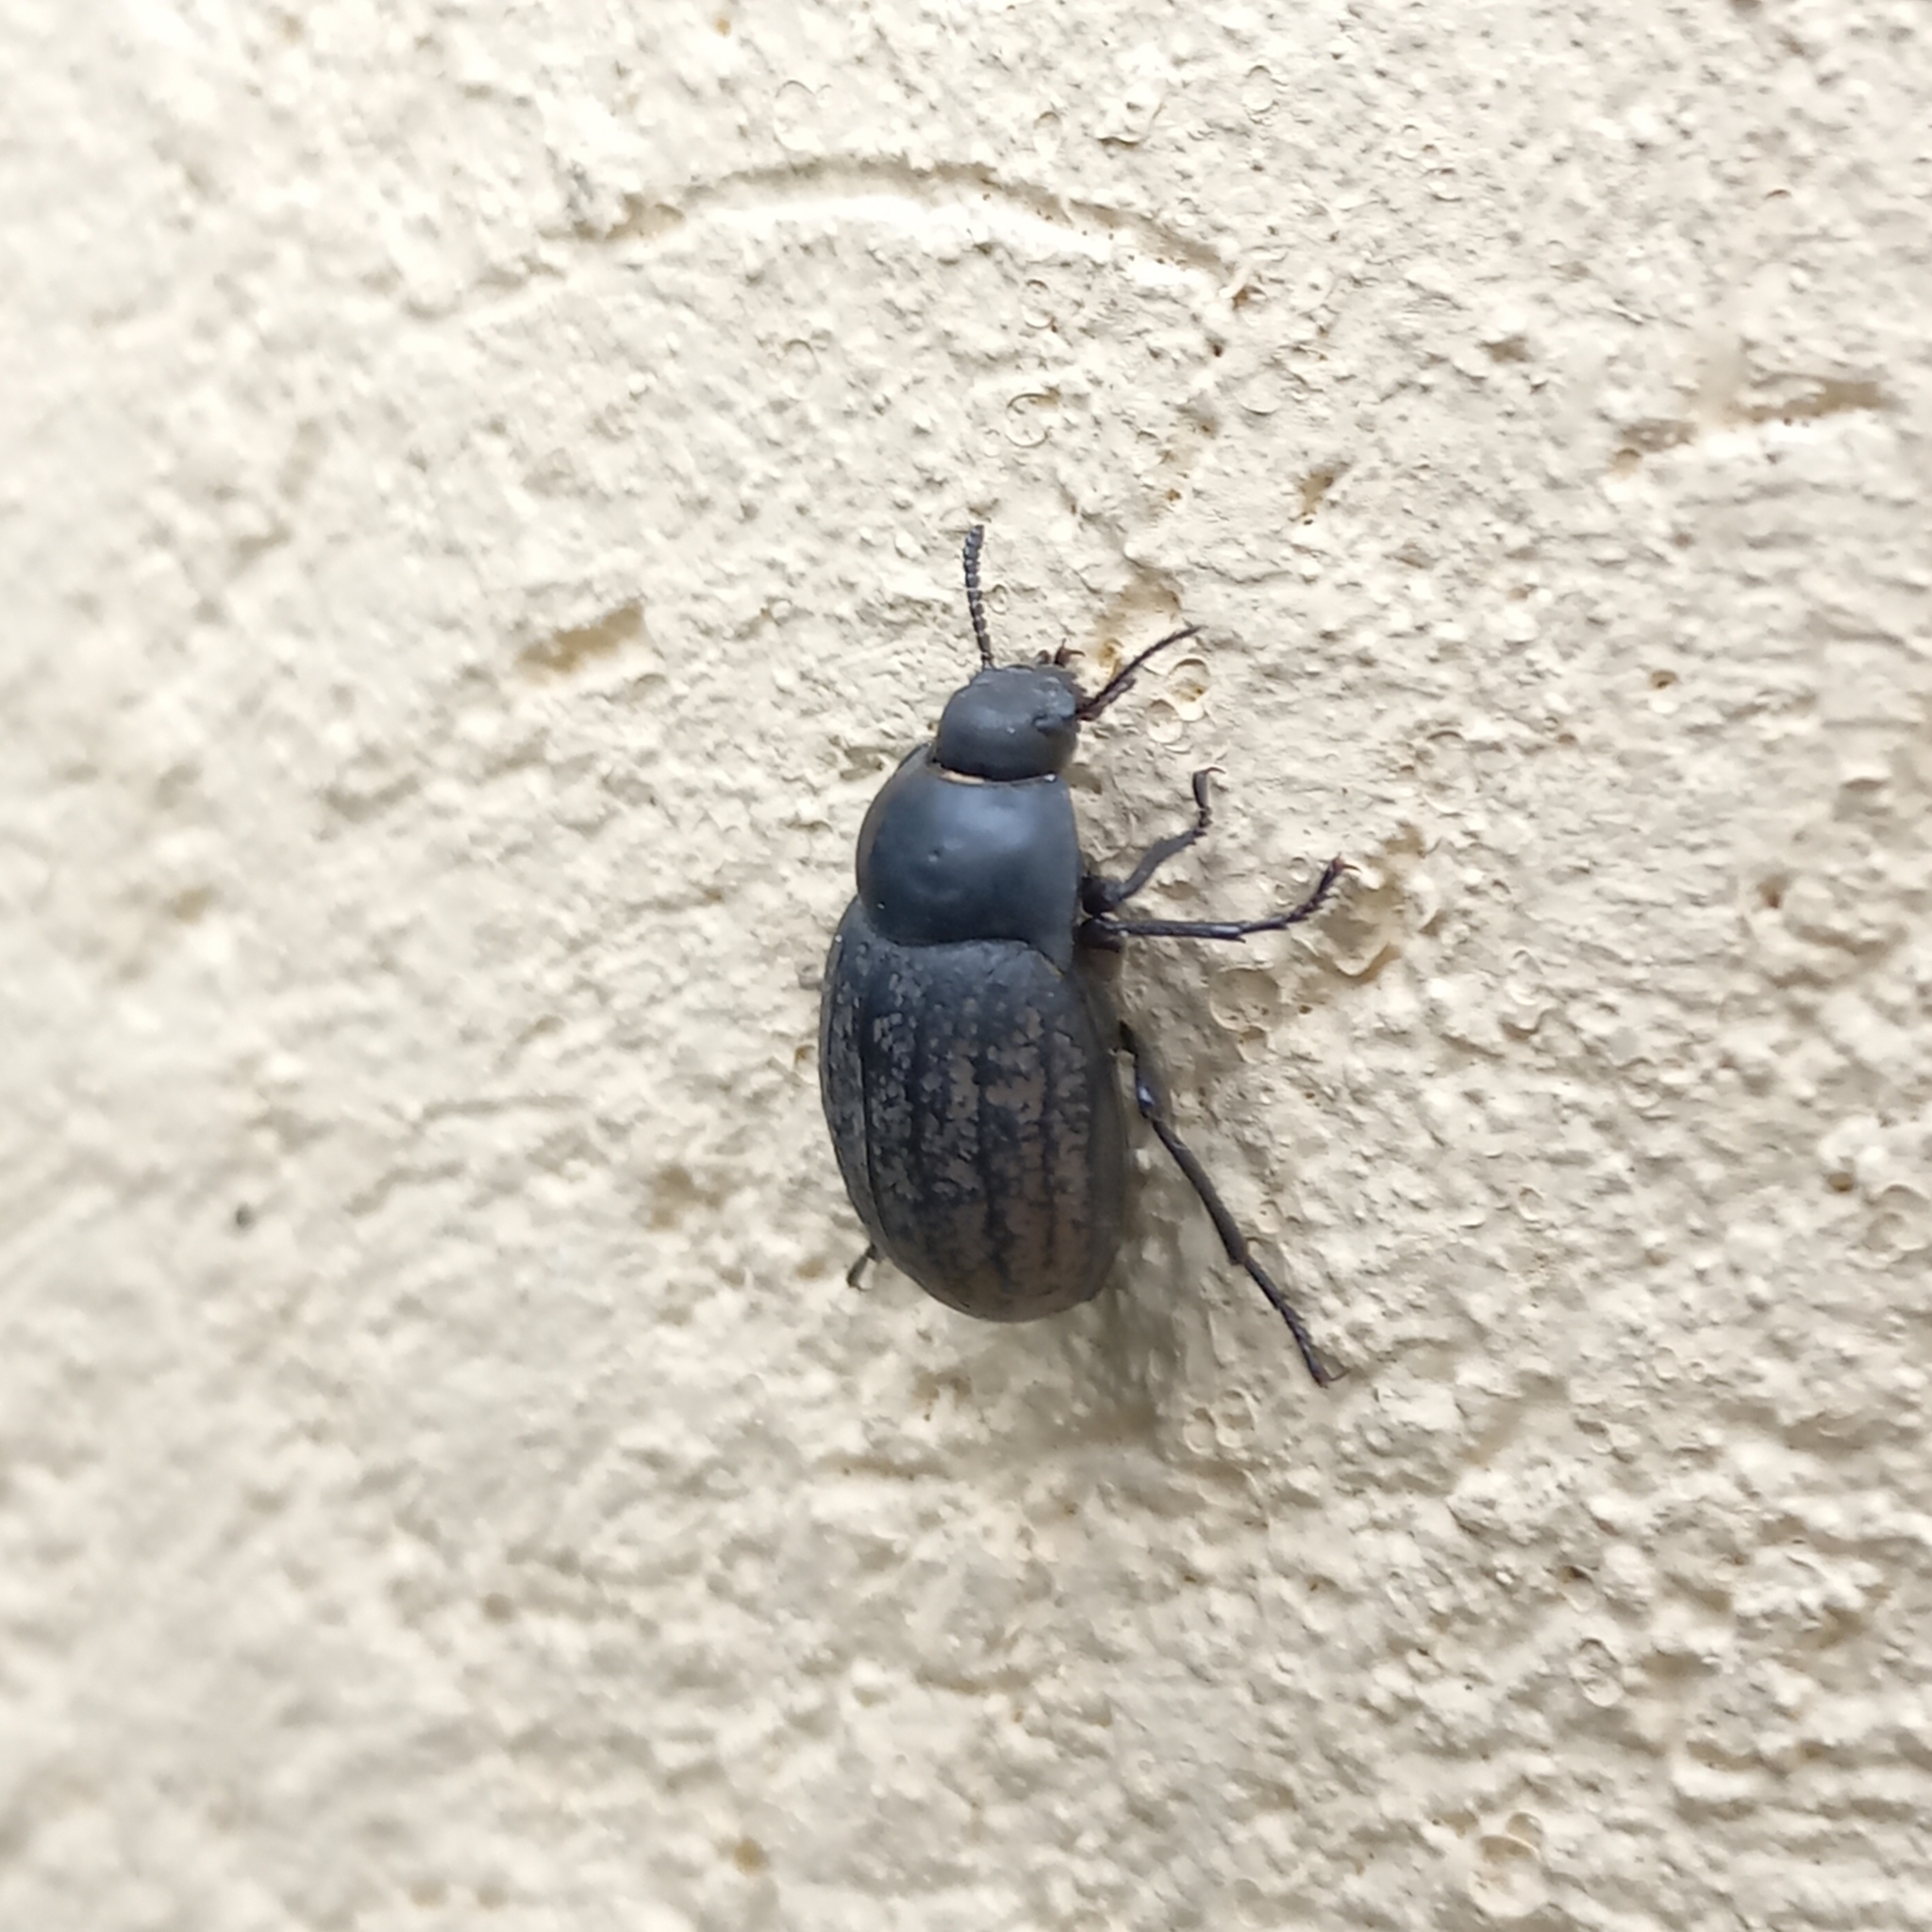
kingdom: Animalia
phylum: Arthropoda
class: Insecta
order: Coleoptera
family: Tenebrionidae
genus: Eusattus
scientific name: Eusattus mexicanus
